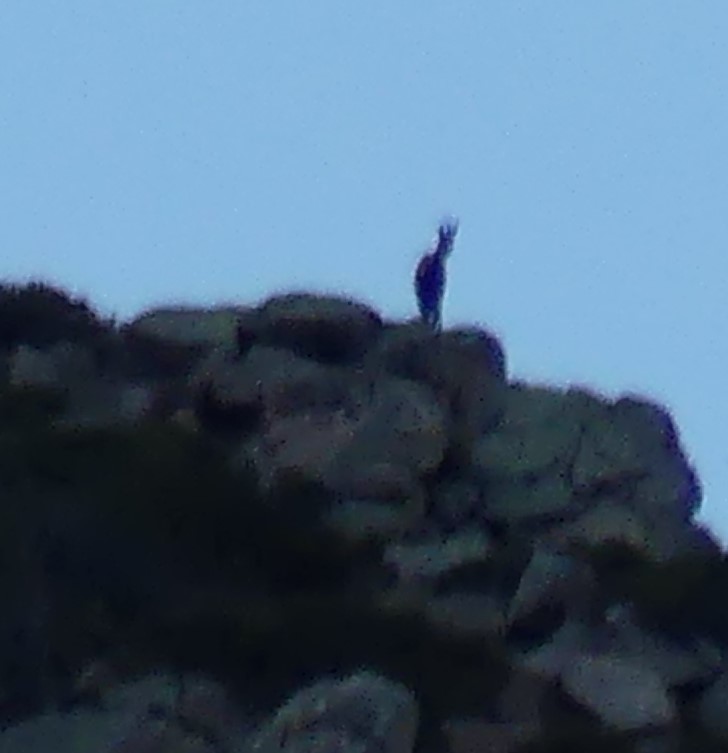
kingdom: Animalia
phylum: Chordata
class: Mammalia
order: Artiodactyla
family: Bovidae
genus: Rupicapra
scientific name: Rupicapra pyrenaica
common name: Pyrenean chamois
